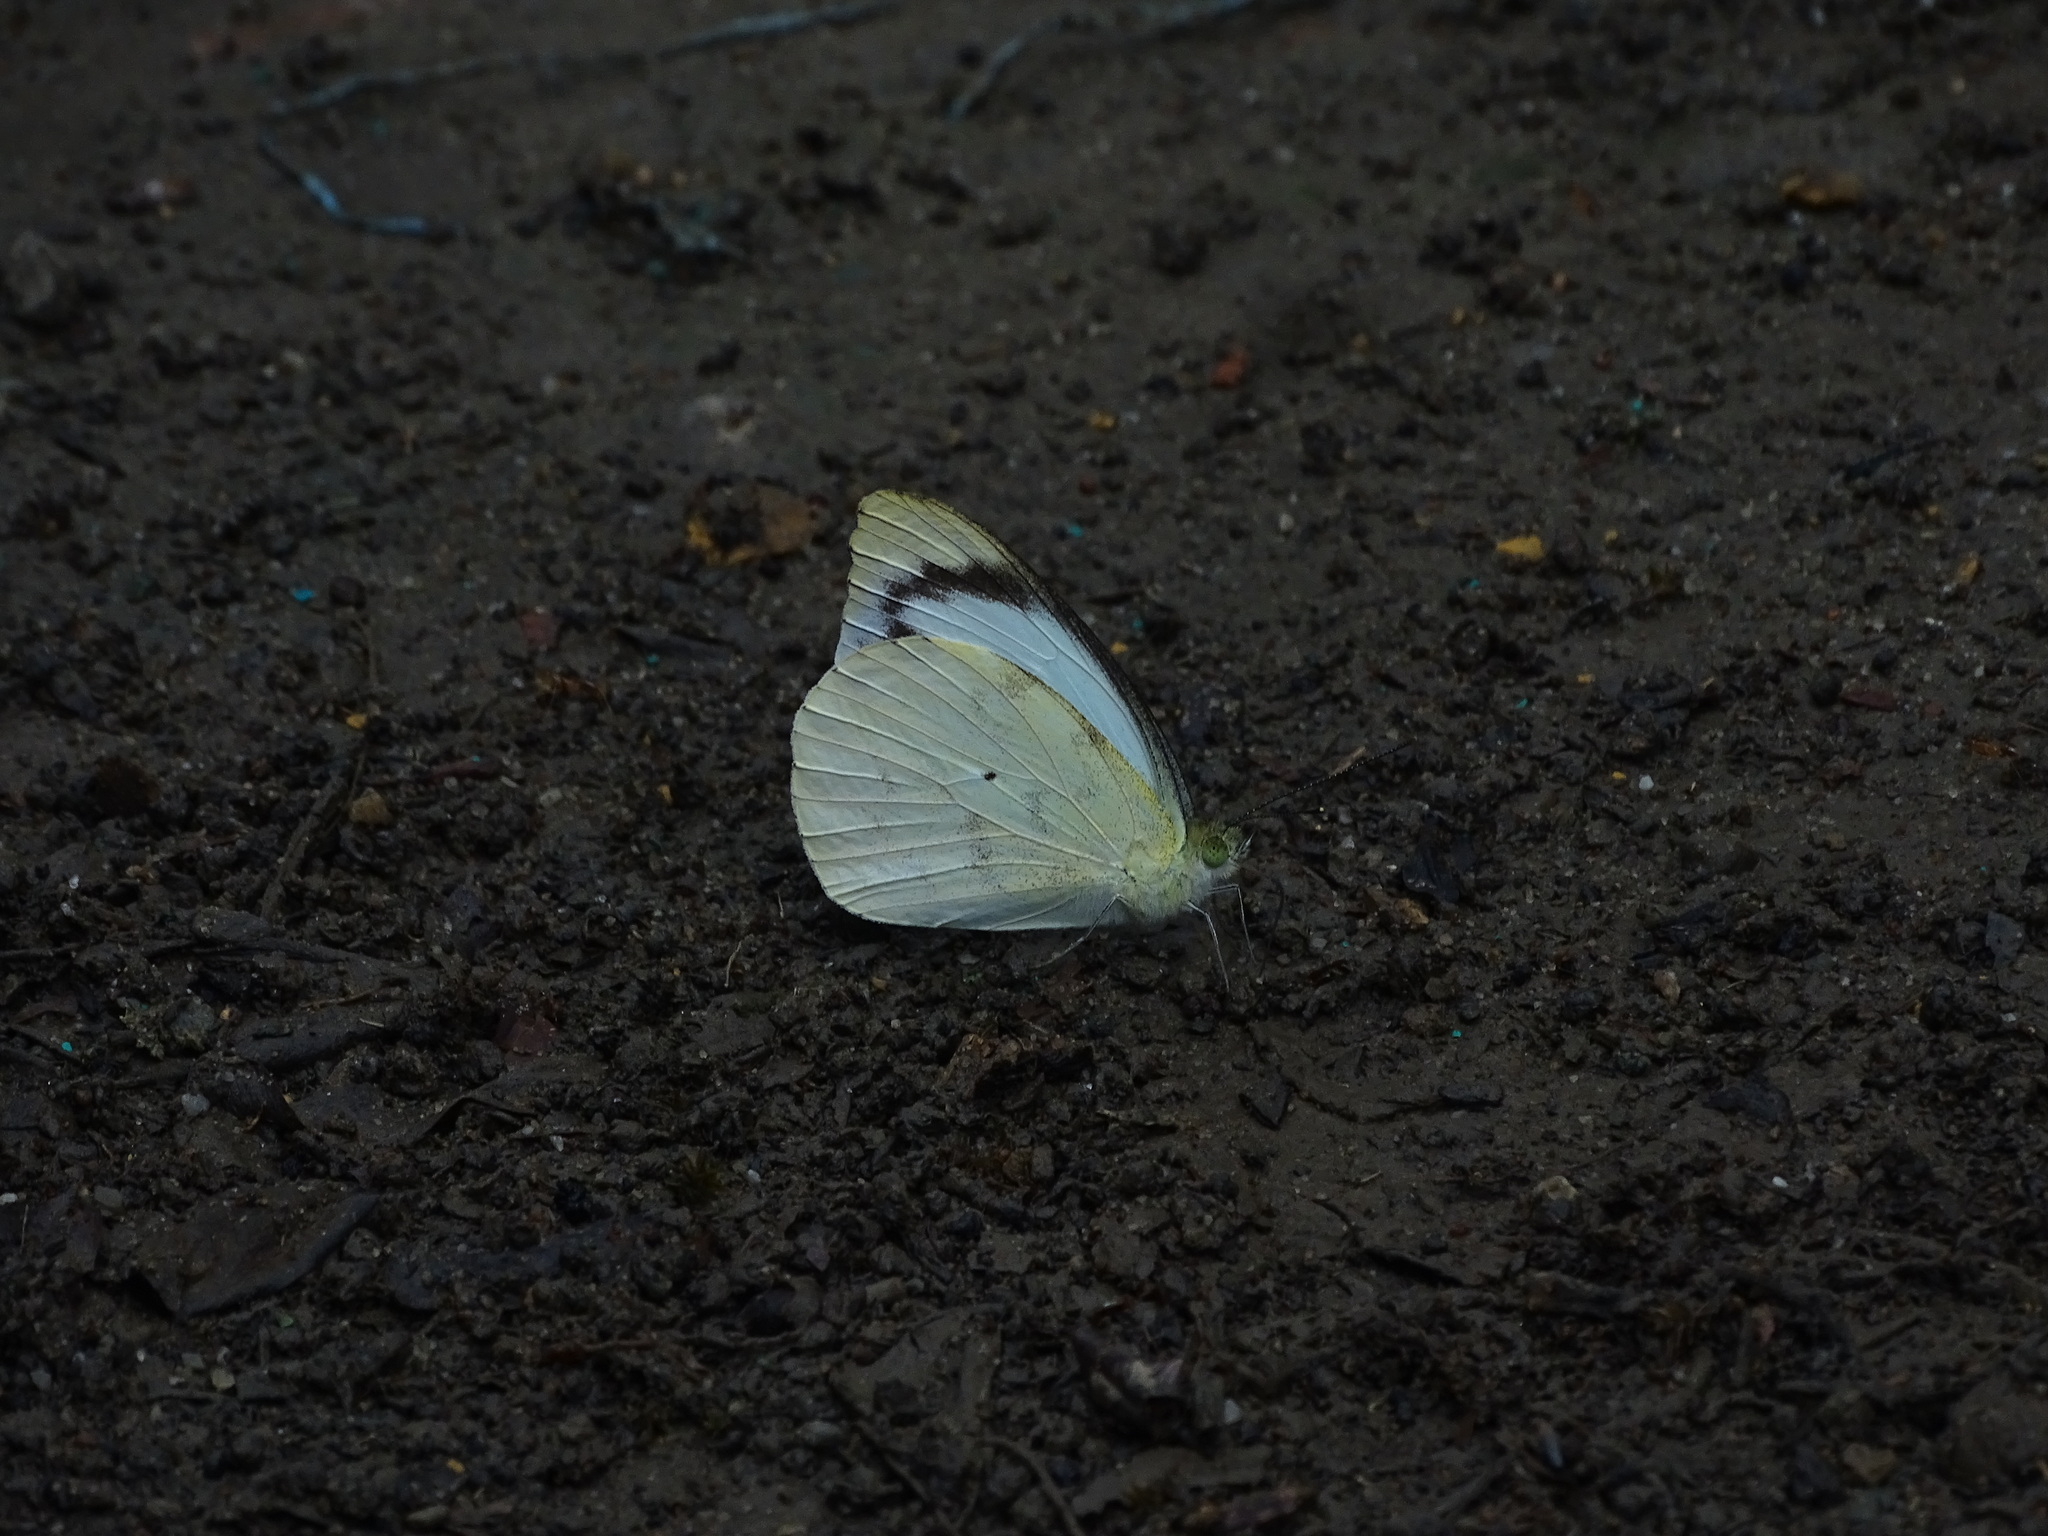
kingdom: Animalia
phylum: Arthropoda
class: Insecta
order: Lepidoptera
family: Pieridae
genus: Appias
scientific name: Appias indra
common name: Plain puffin
